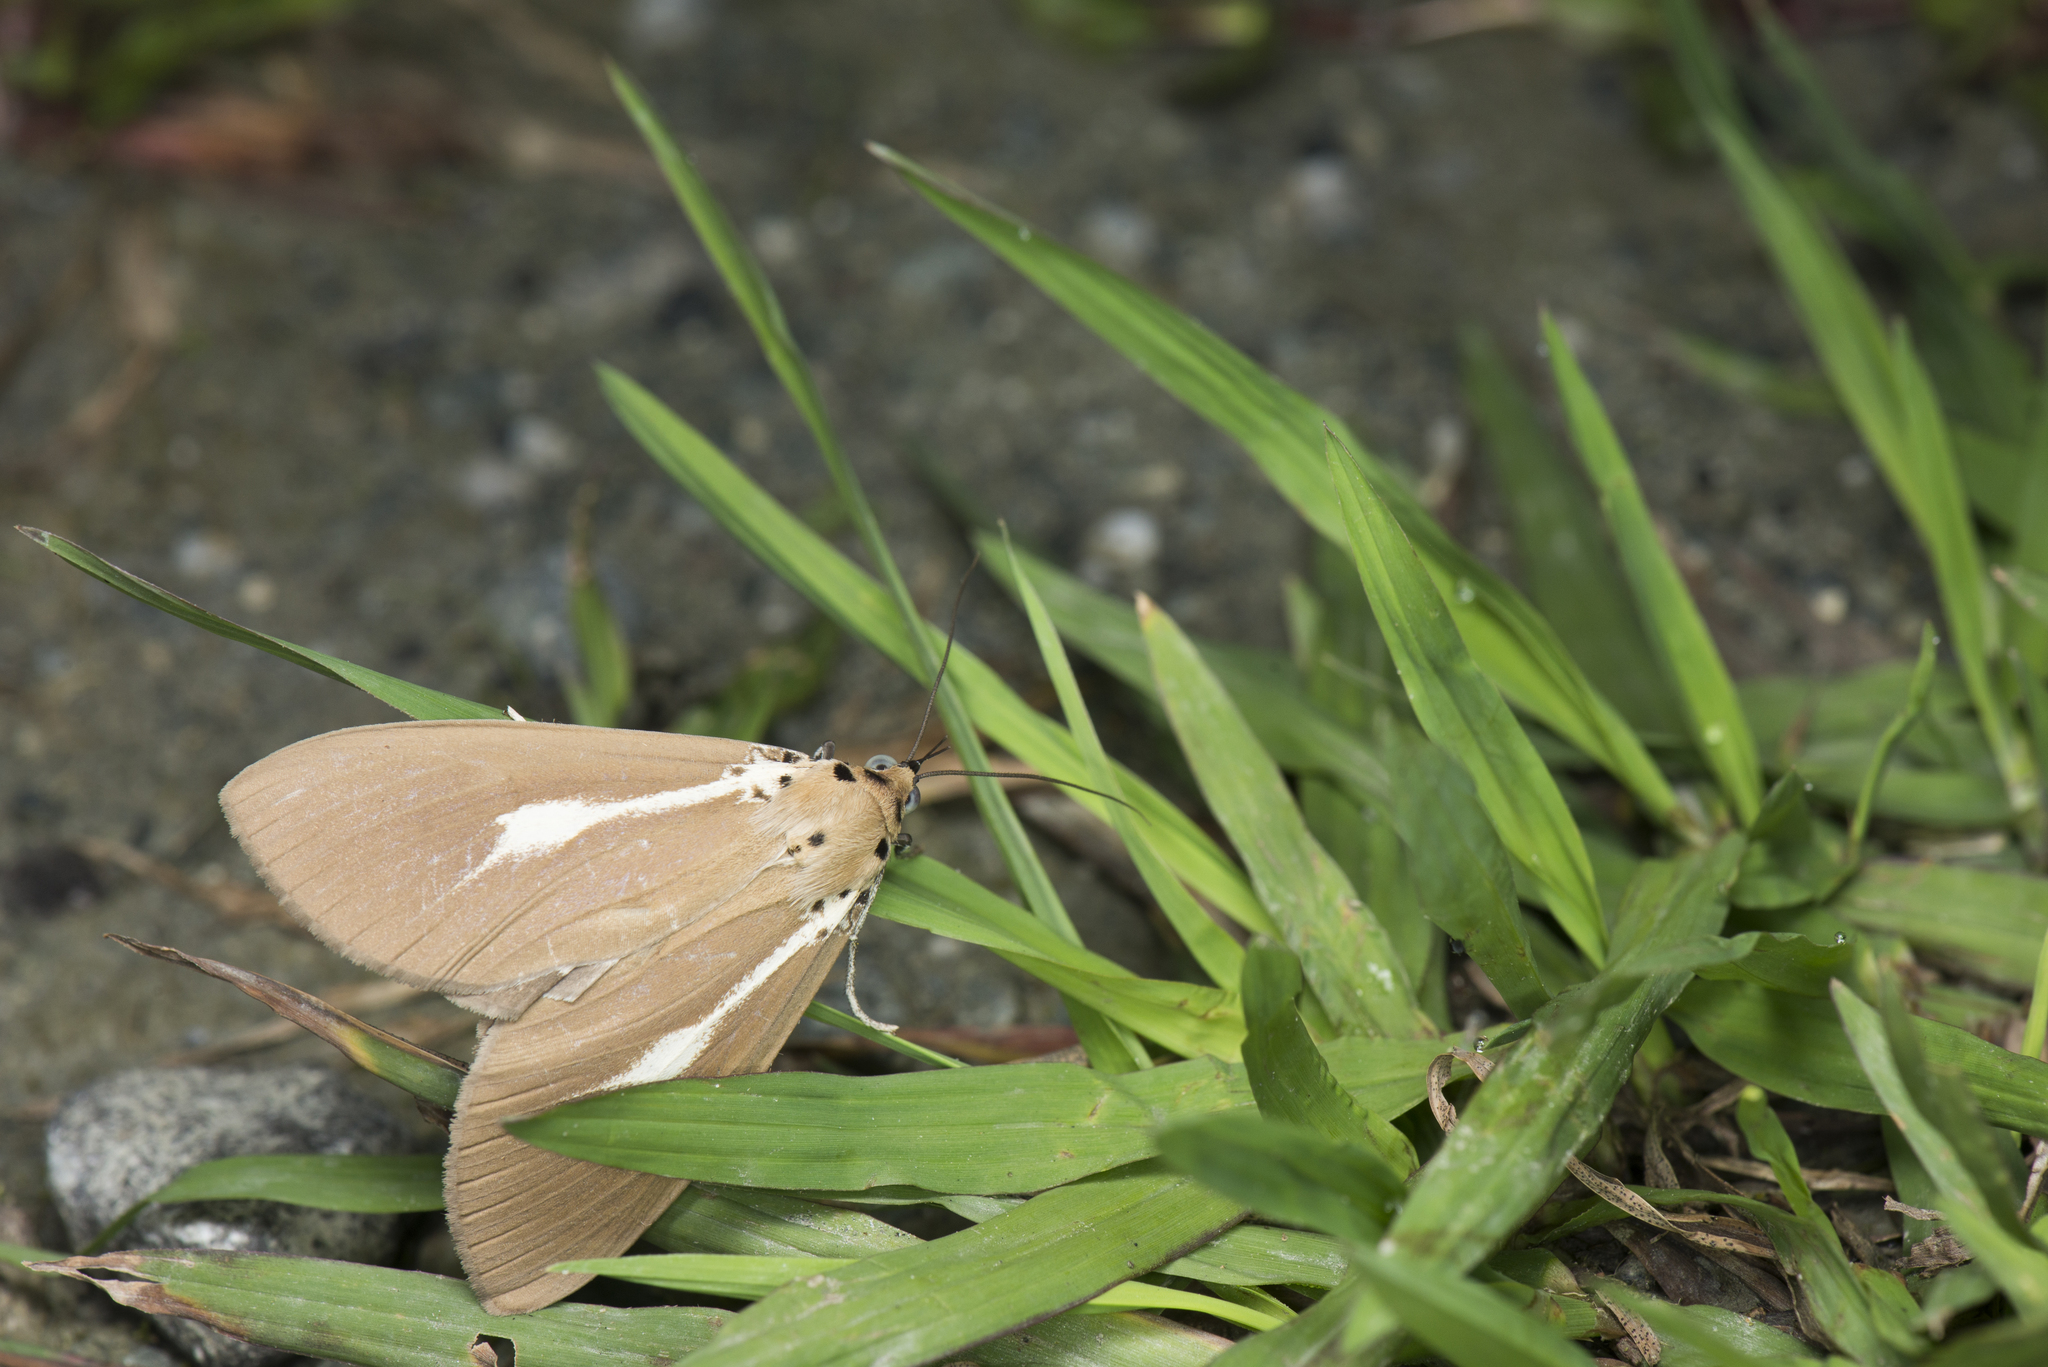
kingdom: Animalia
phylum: Arthropoda
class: Insecta
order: Lepidoptera
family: Erebidae
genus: Asota
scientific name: Asota heliconia
